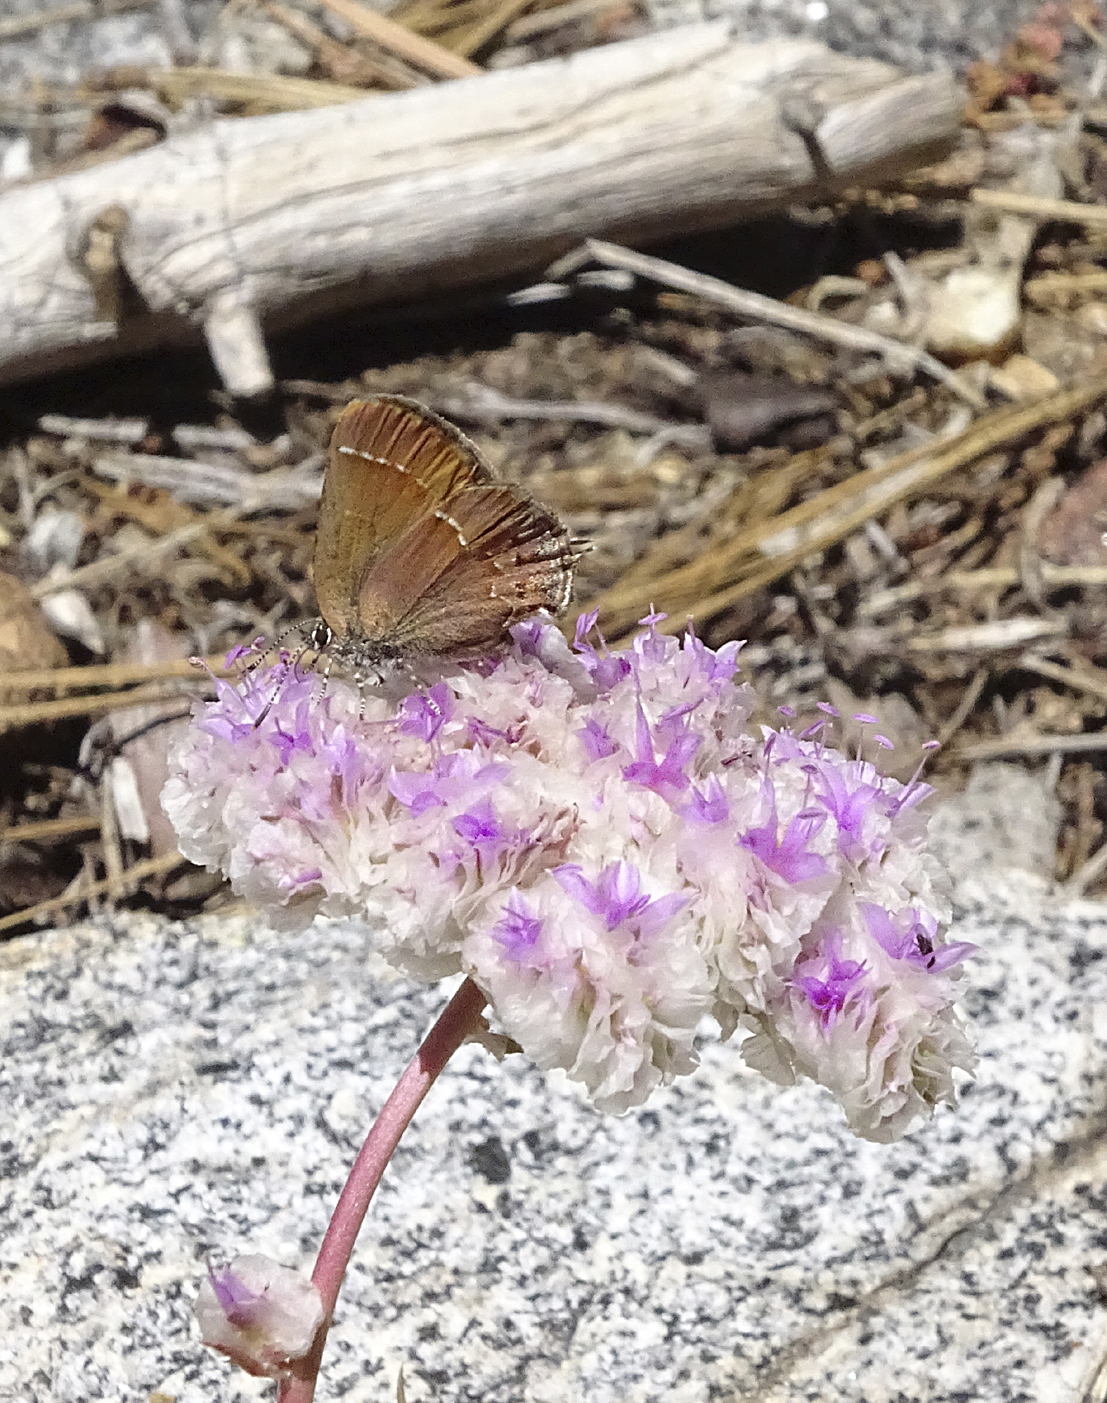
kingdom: Animalia
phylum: Arthropoda
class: Insecta
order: Lepidoptera
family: Lycaenidae
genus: Mitoura
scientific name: Mitoura gryneus
